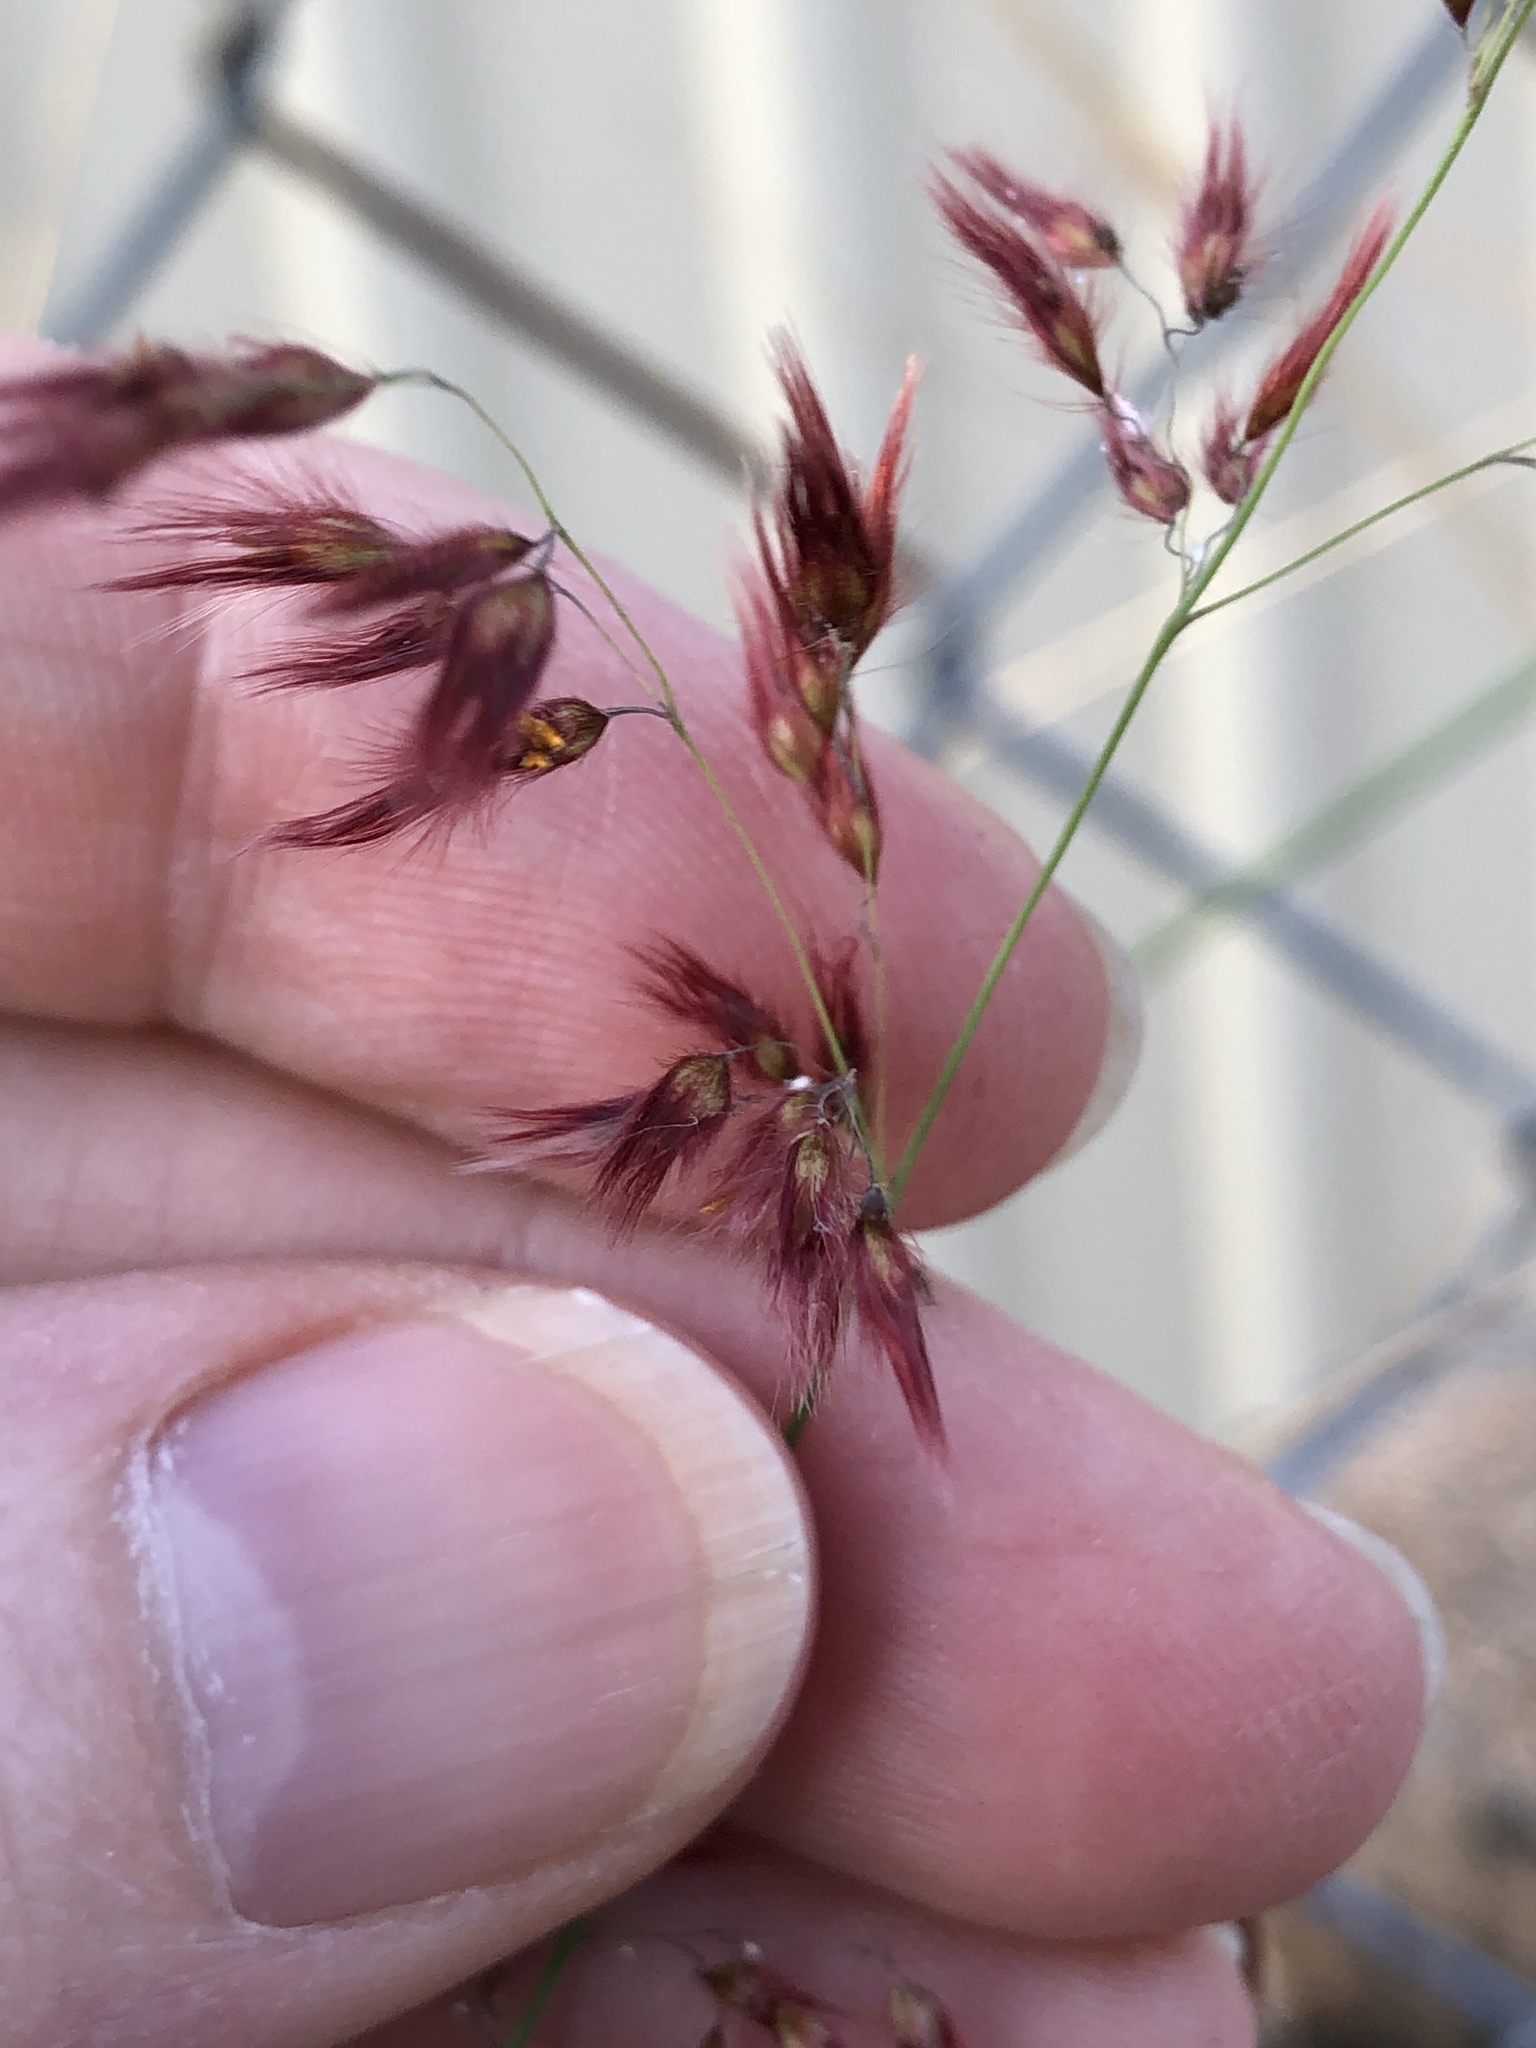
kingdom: Plantae
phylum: Tracheophyta
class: Liliopsida
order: Poales
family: Poaceae
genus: Melinis
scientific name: Melinis repens
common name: Rose natal grass
